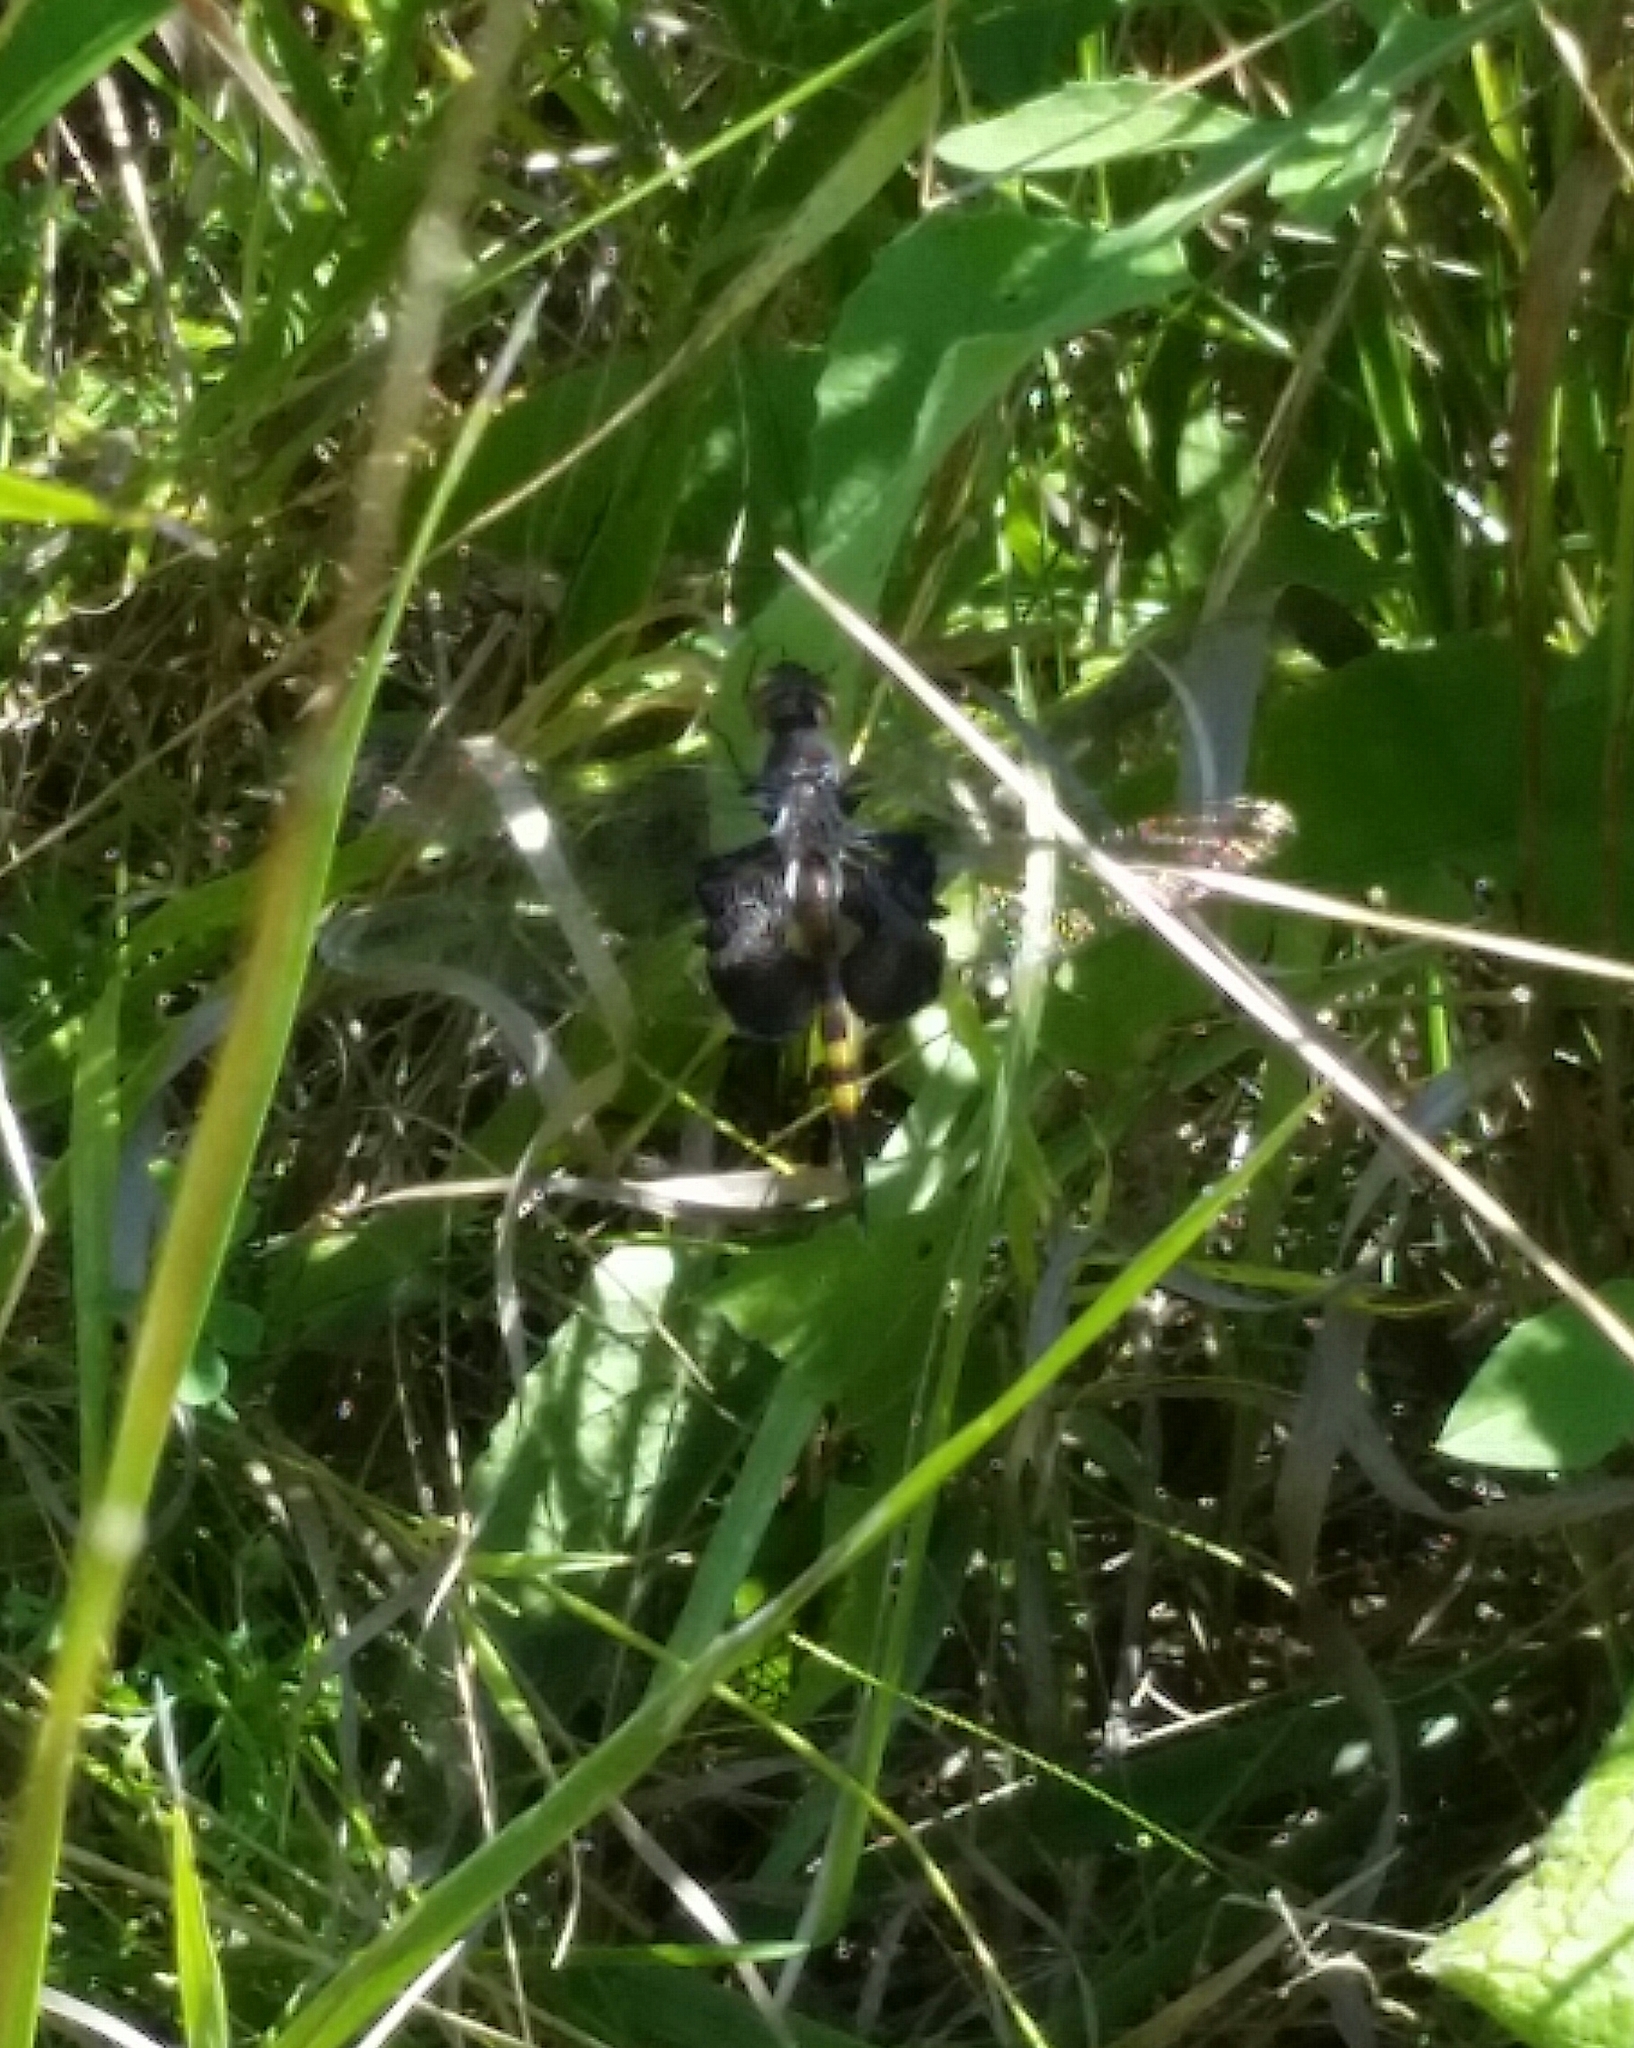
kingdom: Animalia
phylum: Arthropoda
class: Insecta
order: Odonata
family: Libellulidae
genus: Tramea
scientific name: Tramea lacerata
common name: Black saddlebags
